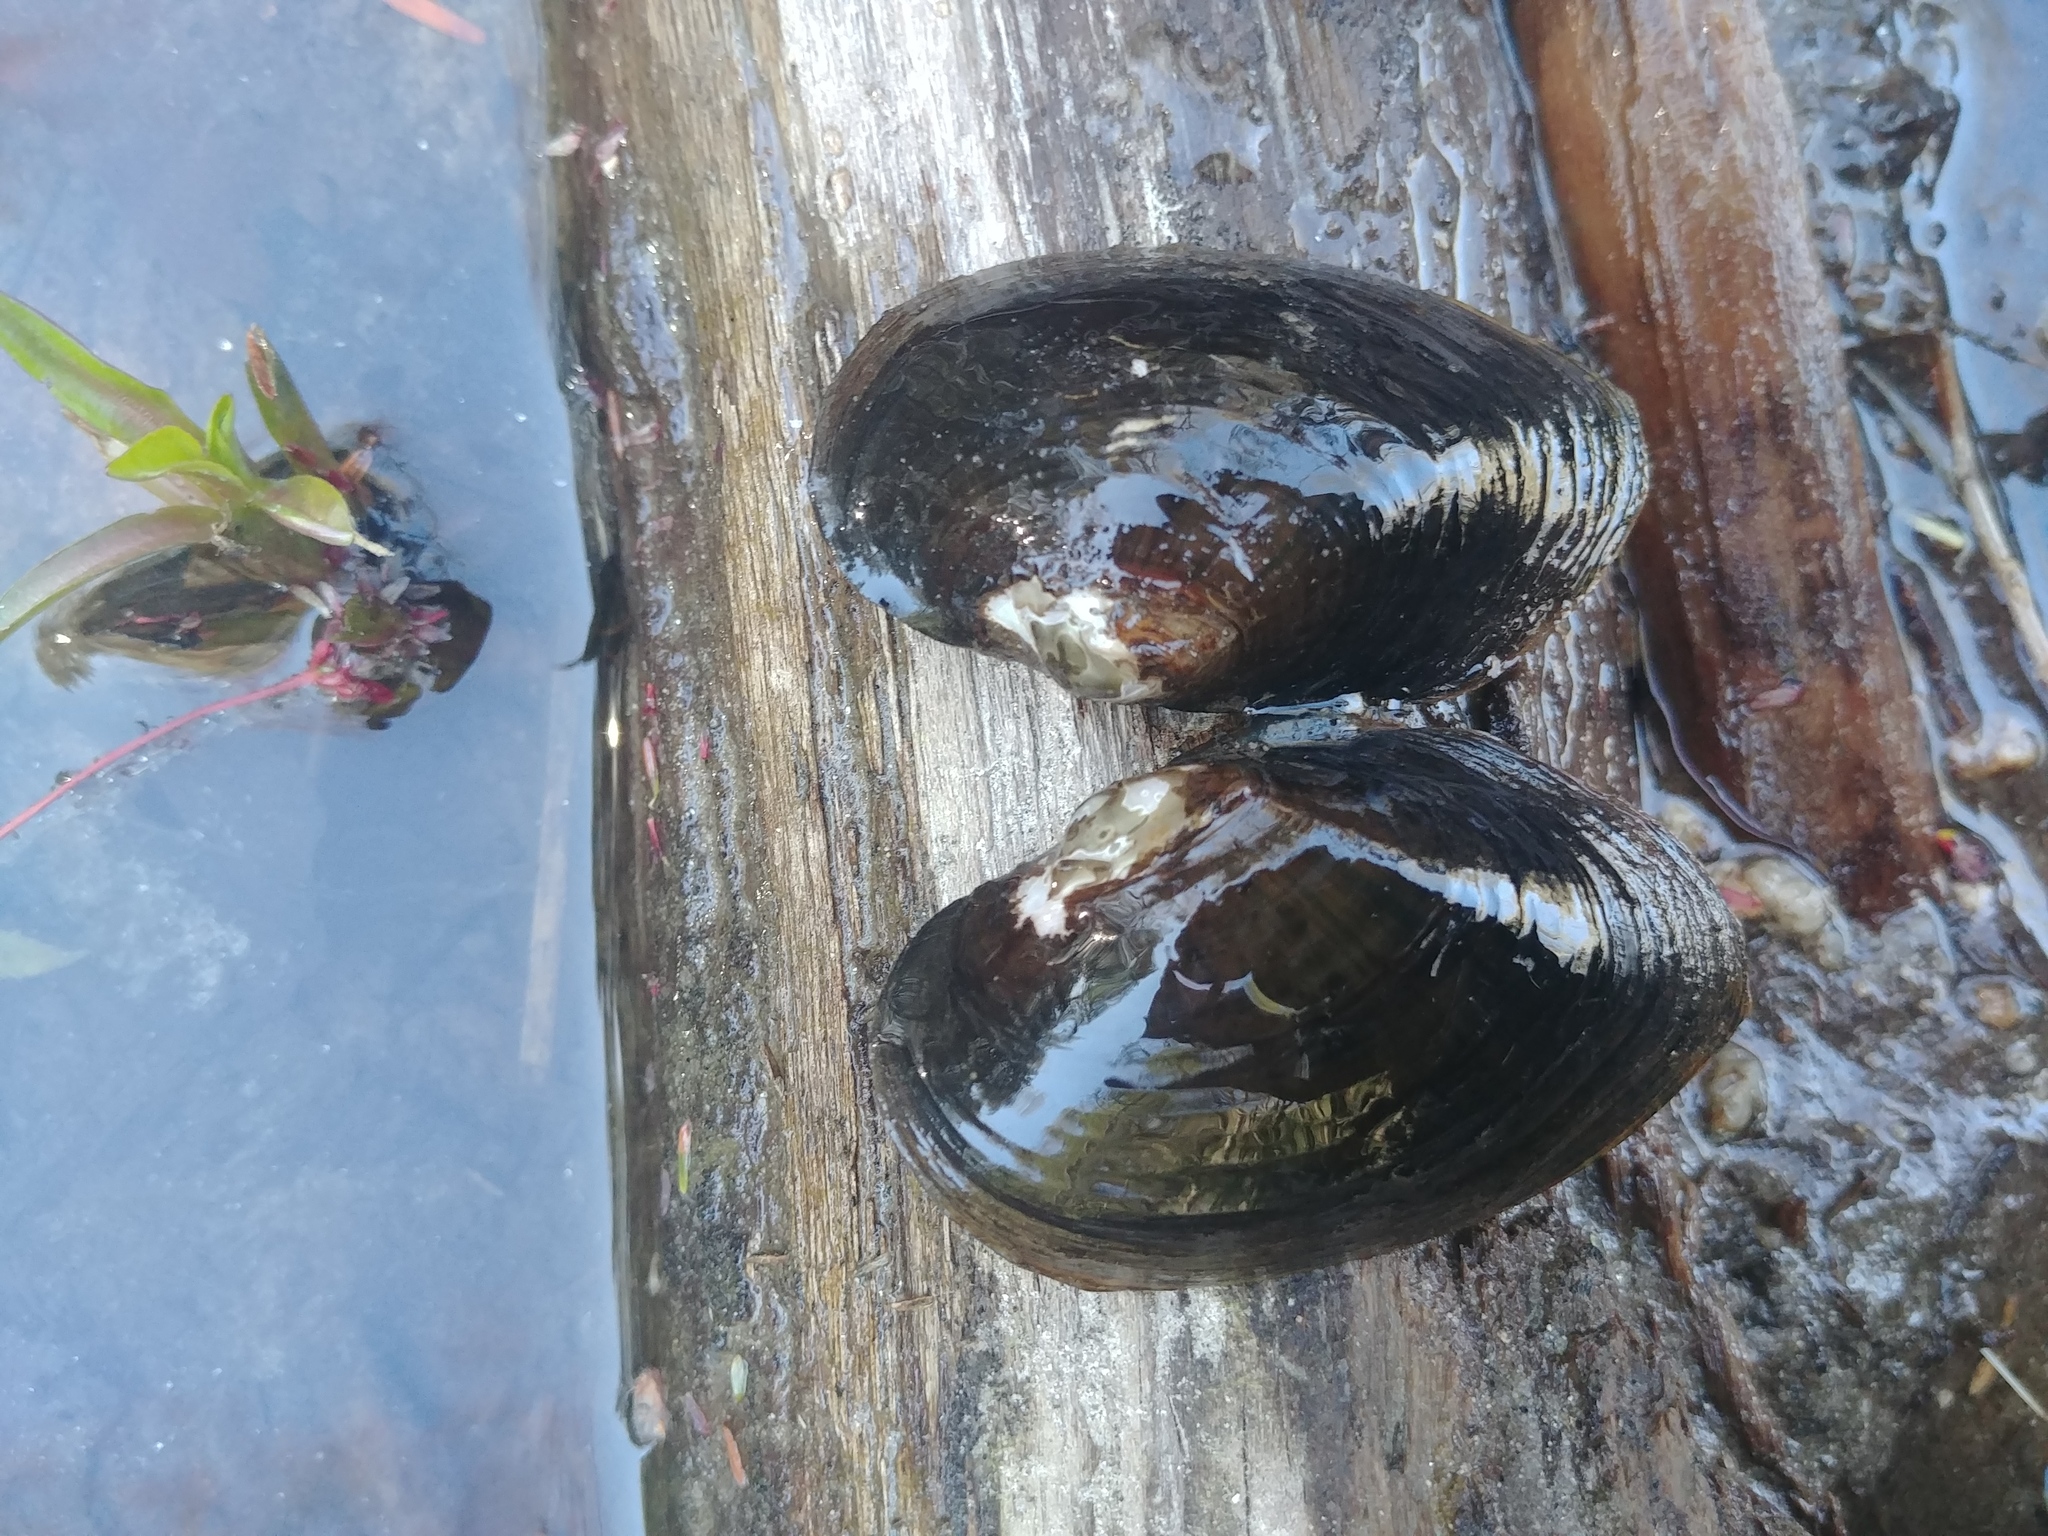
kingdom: Animalia
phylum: Mollusca
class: Bivalvia
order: Unionida
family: Unionidae
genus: Alasmidonta
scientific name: Alasmidonta undulata
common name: Triangle floater
